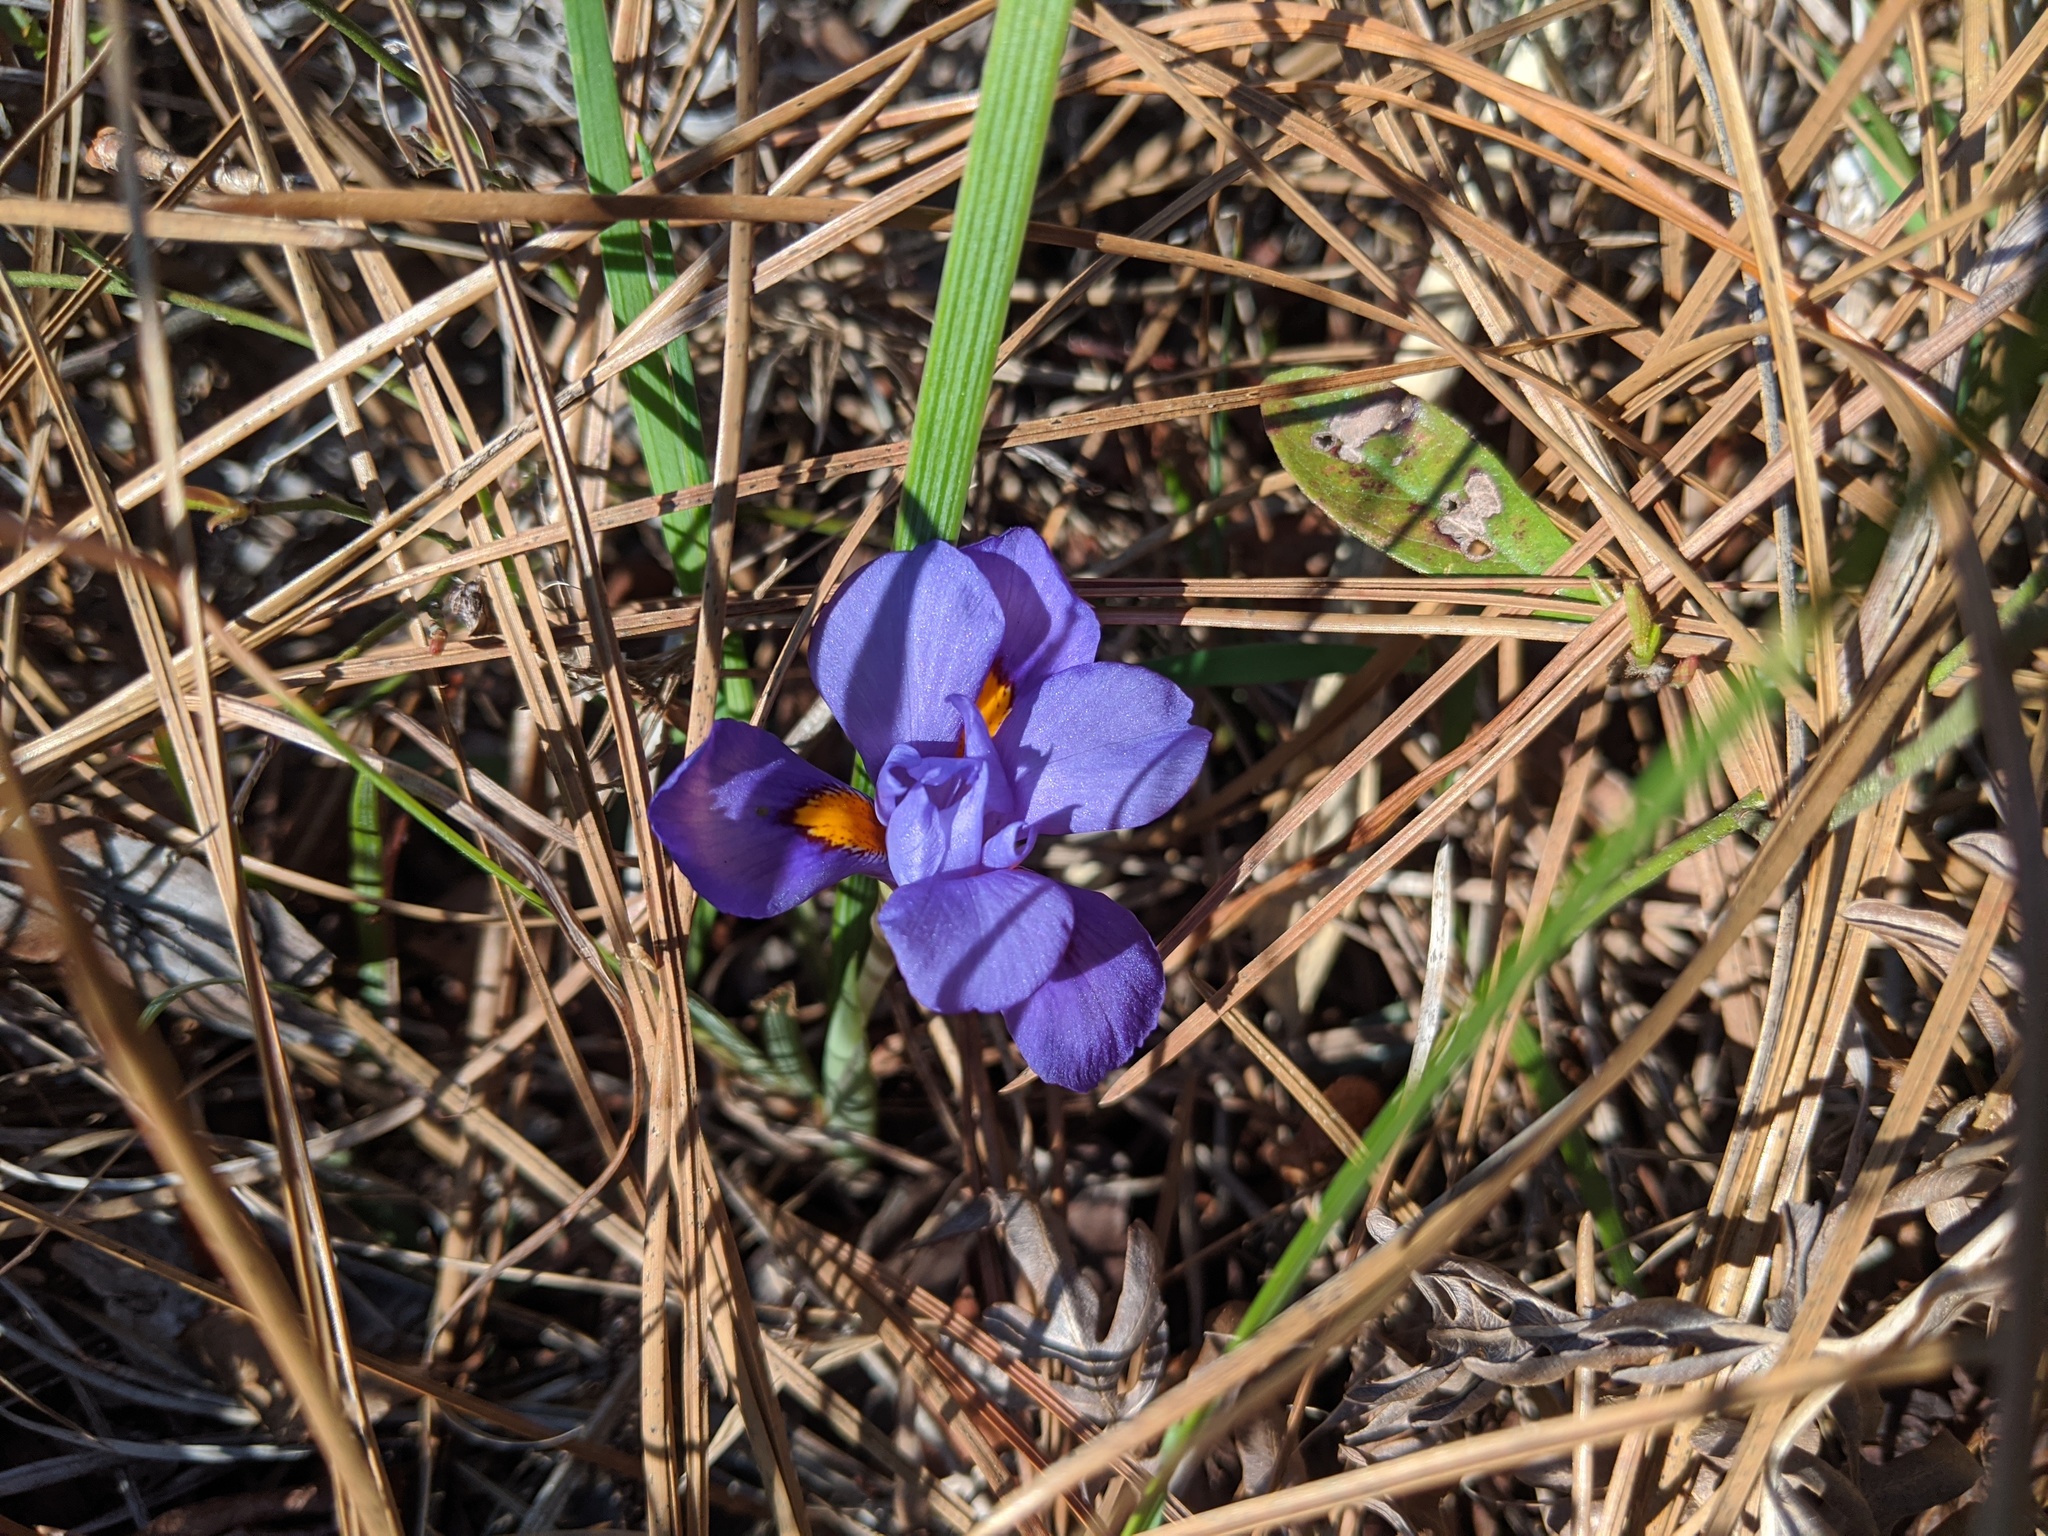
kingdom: Plantae
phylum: Tracheophyta
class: Liliopsida
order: Asparagales
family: Iridaceae
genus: Iris
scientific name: Iris verna
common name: Dwarf iris
